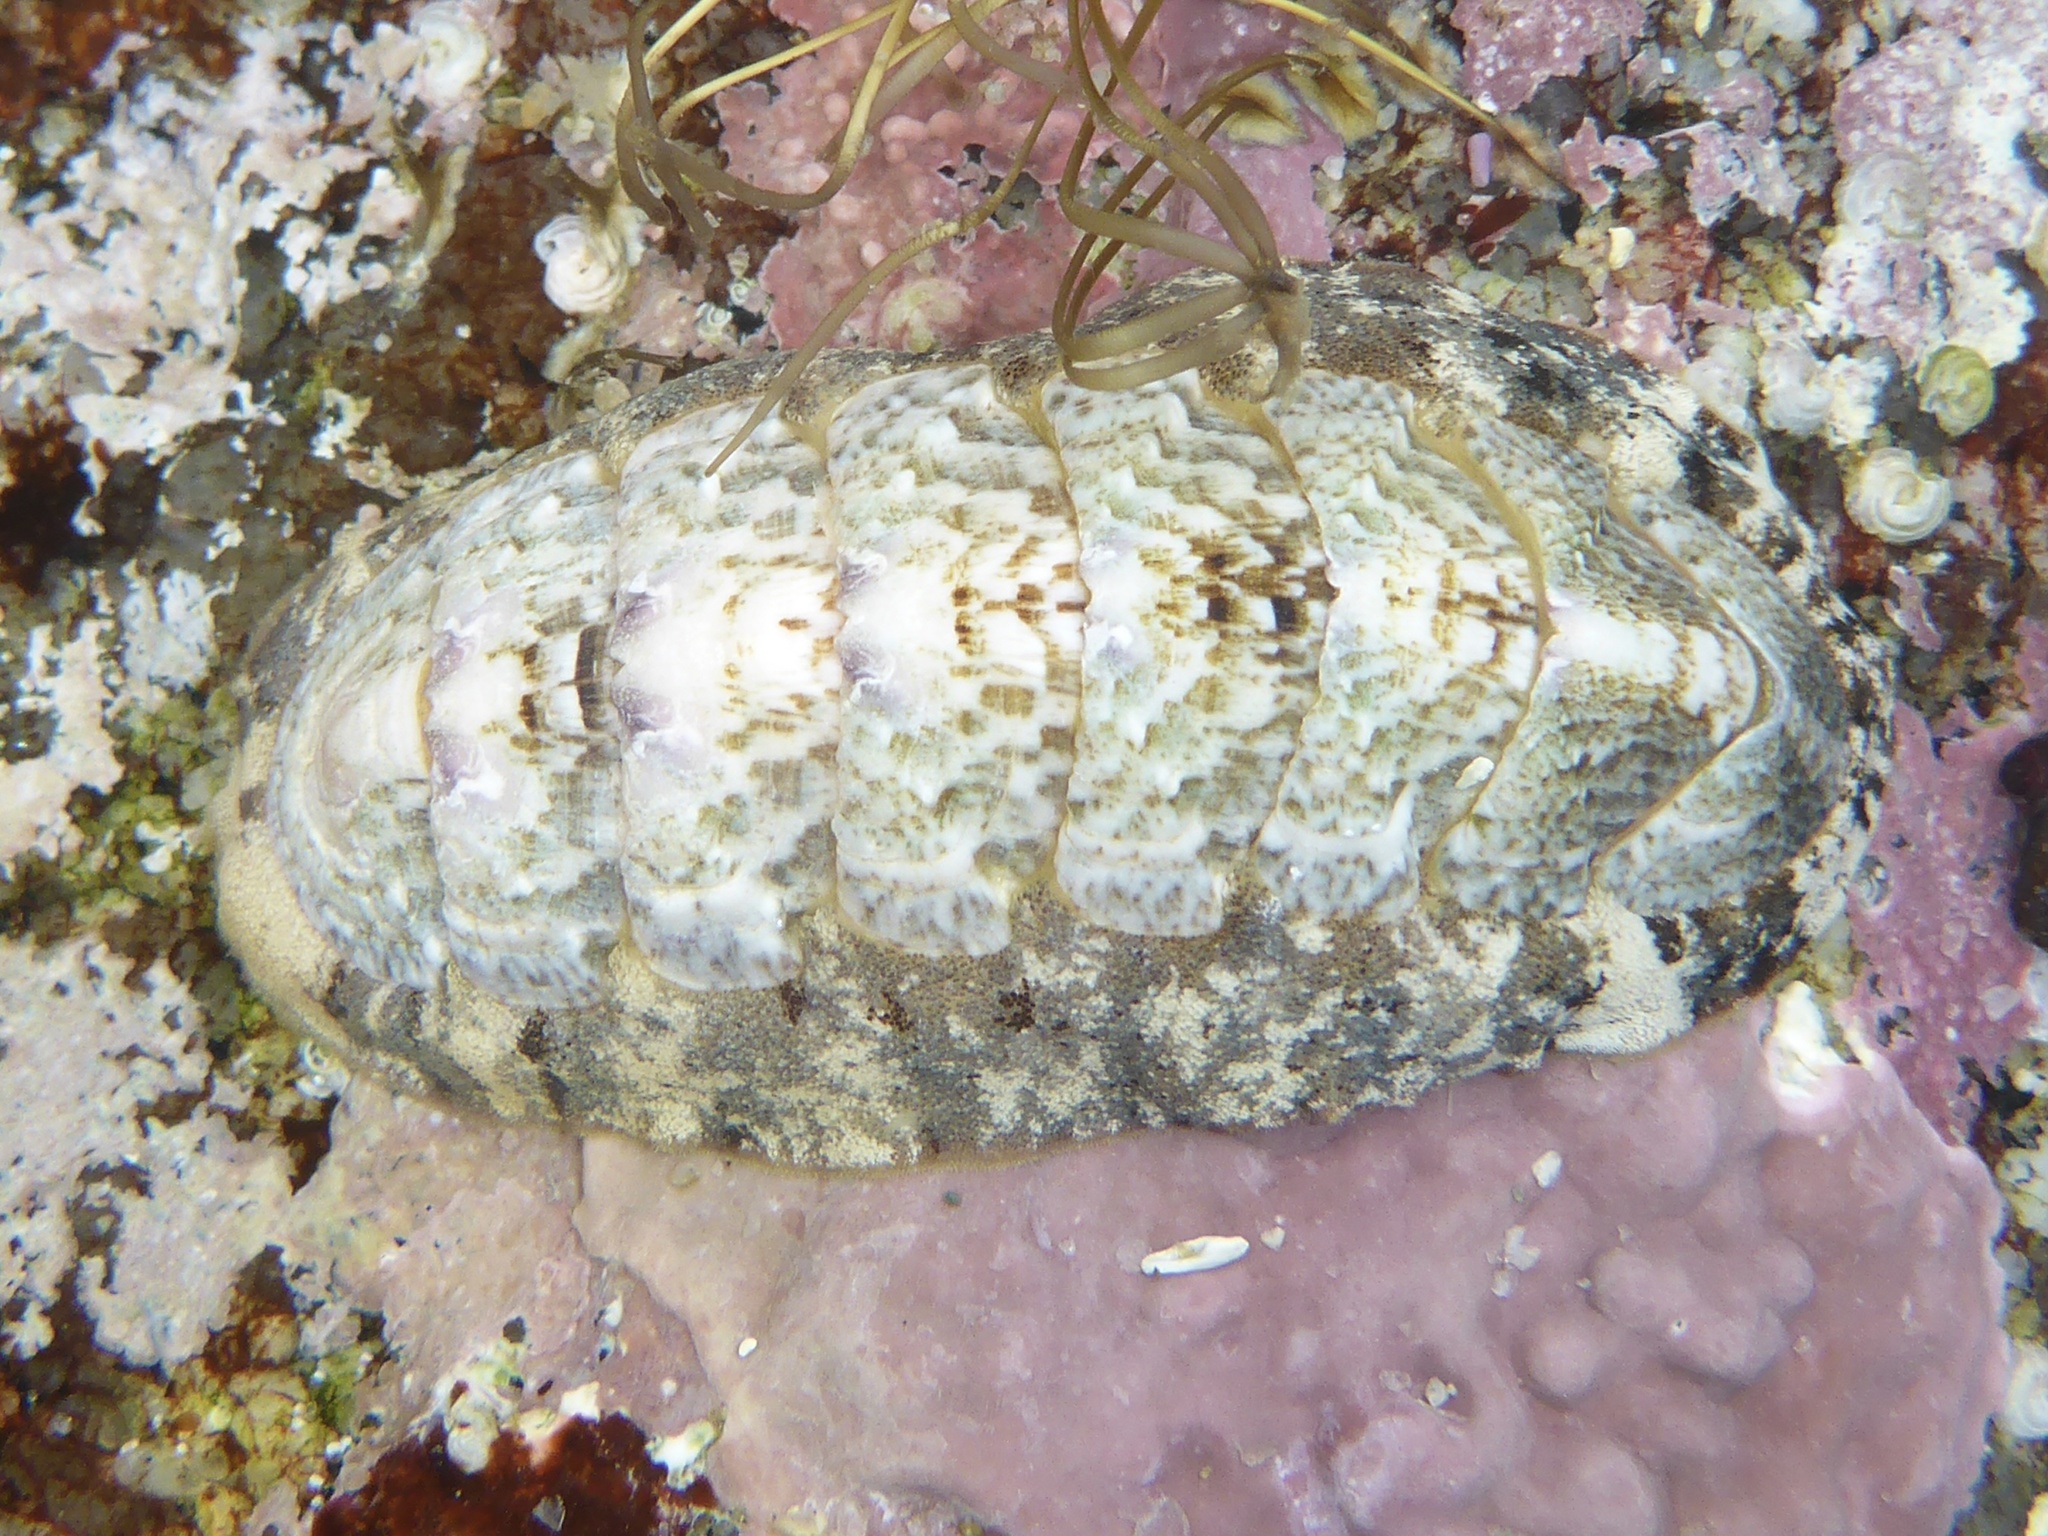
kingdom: Animalia
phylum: Mollusca
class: Polyplacophora
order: Chitonida
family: Ischnochitonidae
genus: Stenoplax
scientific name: Stenoplax heathiana
